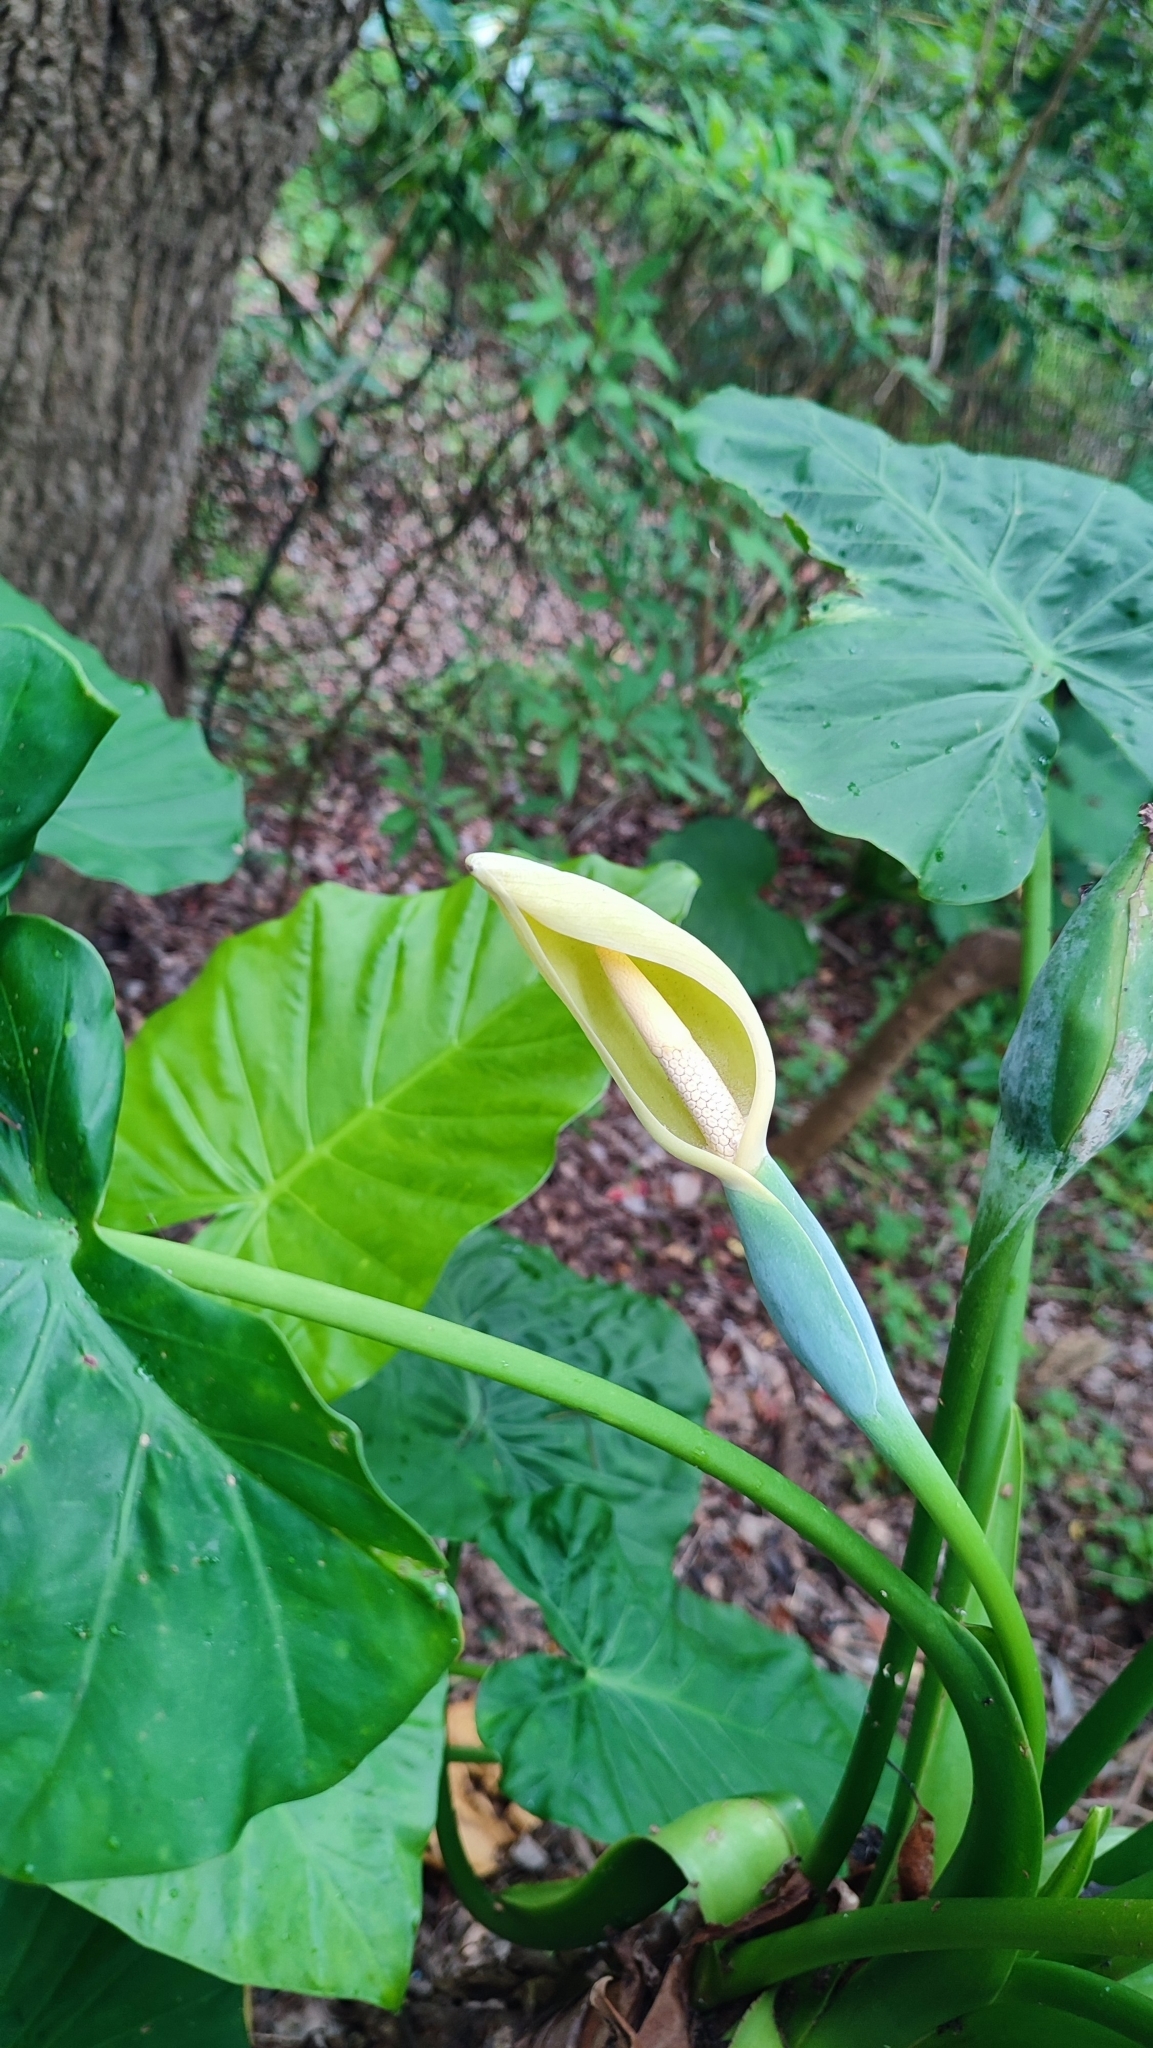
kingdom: Plantae
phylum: Tracheophyta
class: Liliopsida
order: Alismatales
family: Araceae
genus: Alocasia
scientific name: Alocasia odora
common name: Asian taro
